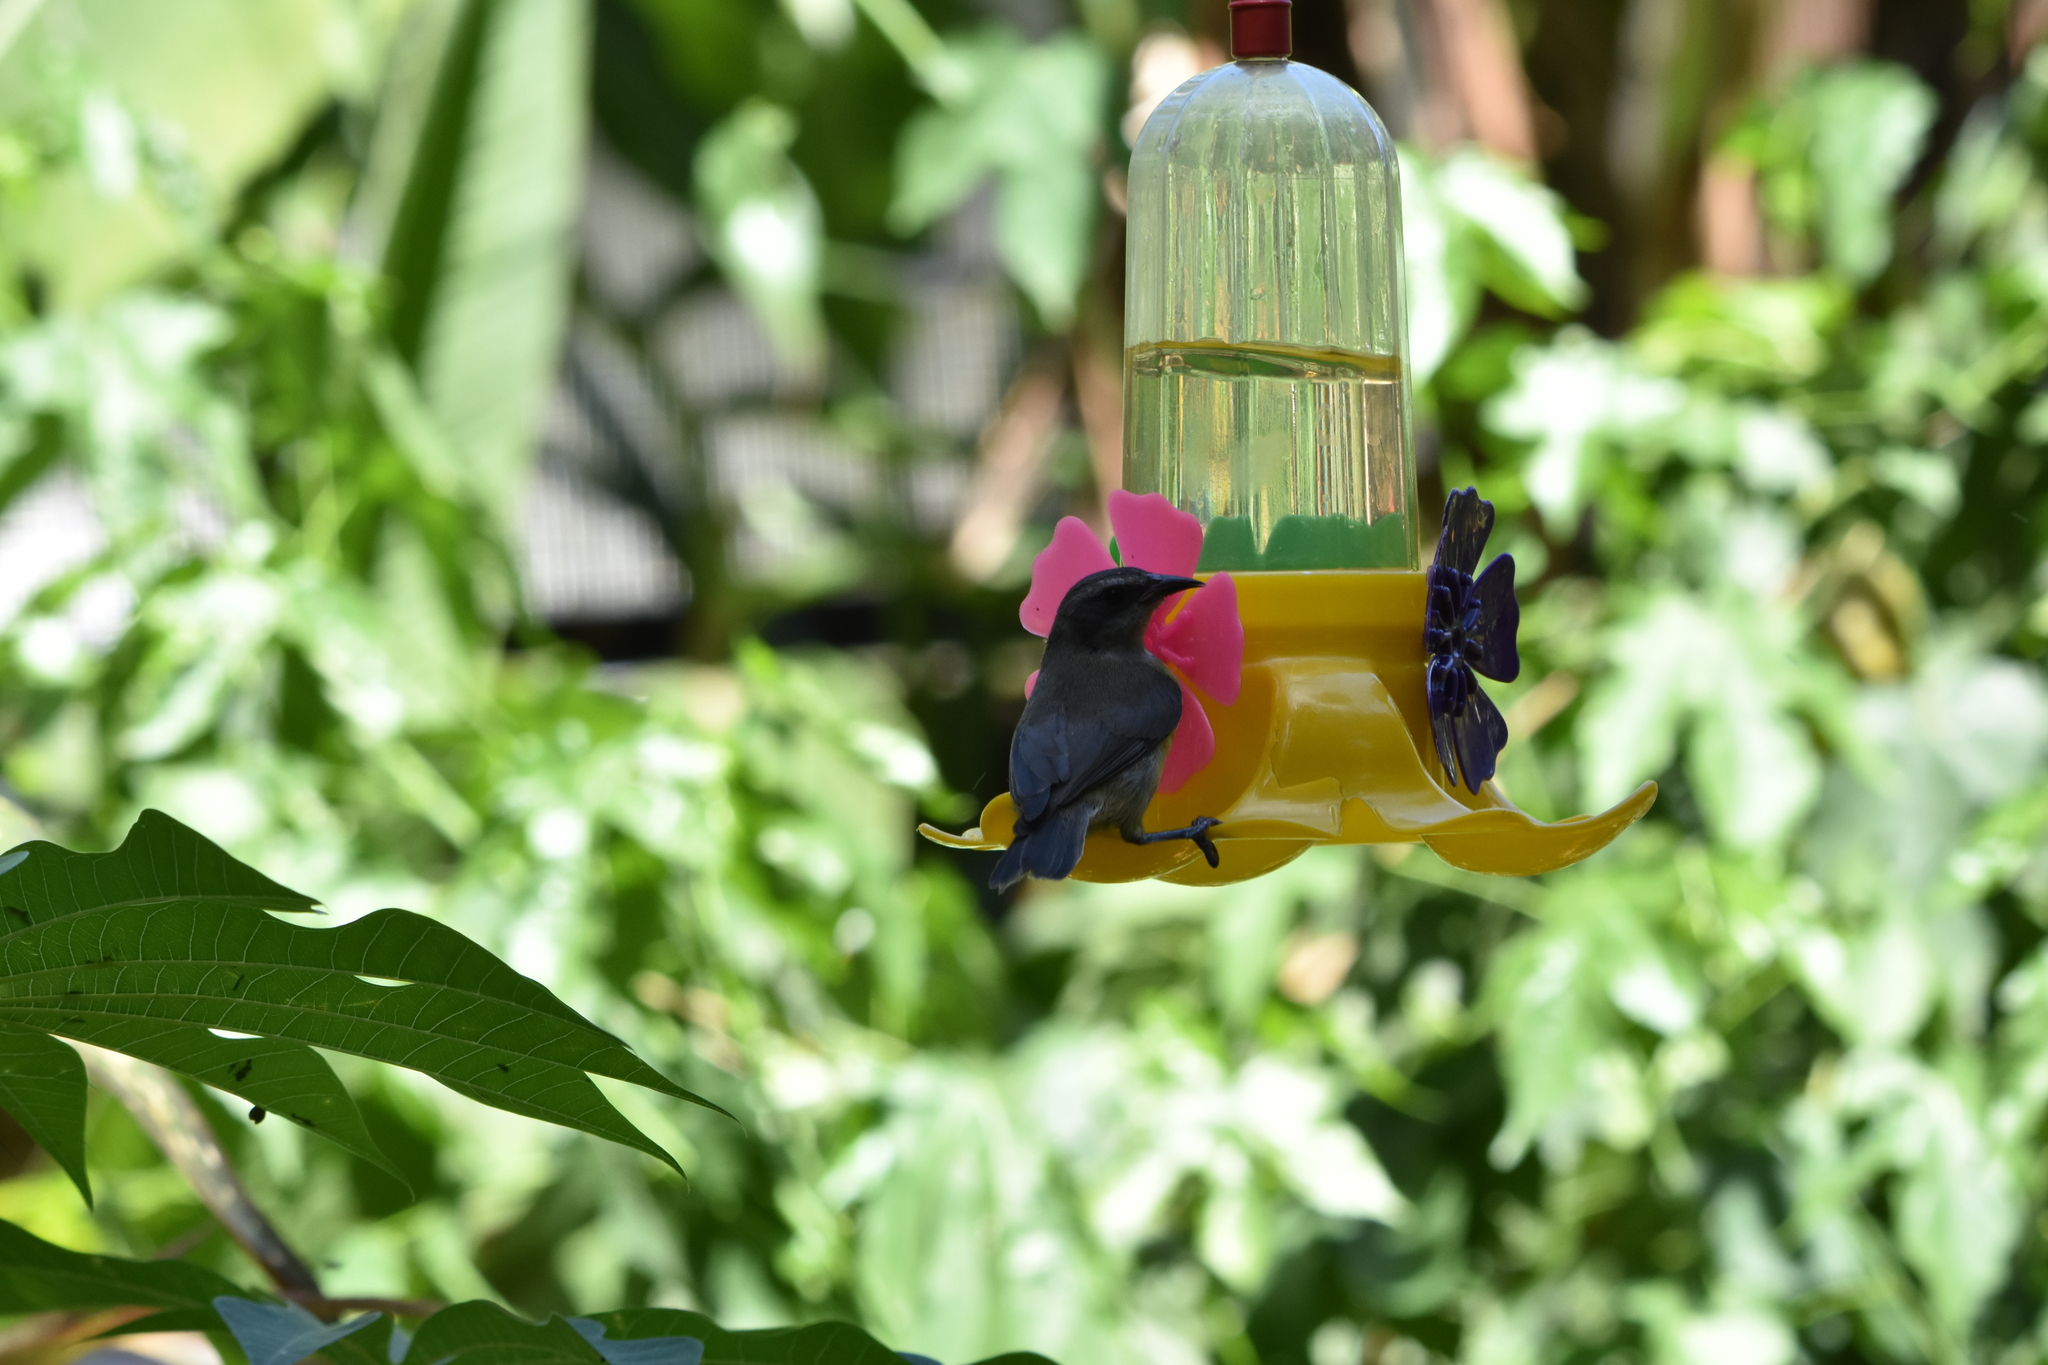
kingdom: Animalia
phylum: Chordata
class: Aves
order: Passeriformes
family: Thraupidae
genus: Coereba
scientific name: Coereba flaveola
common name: Bananaquit
